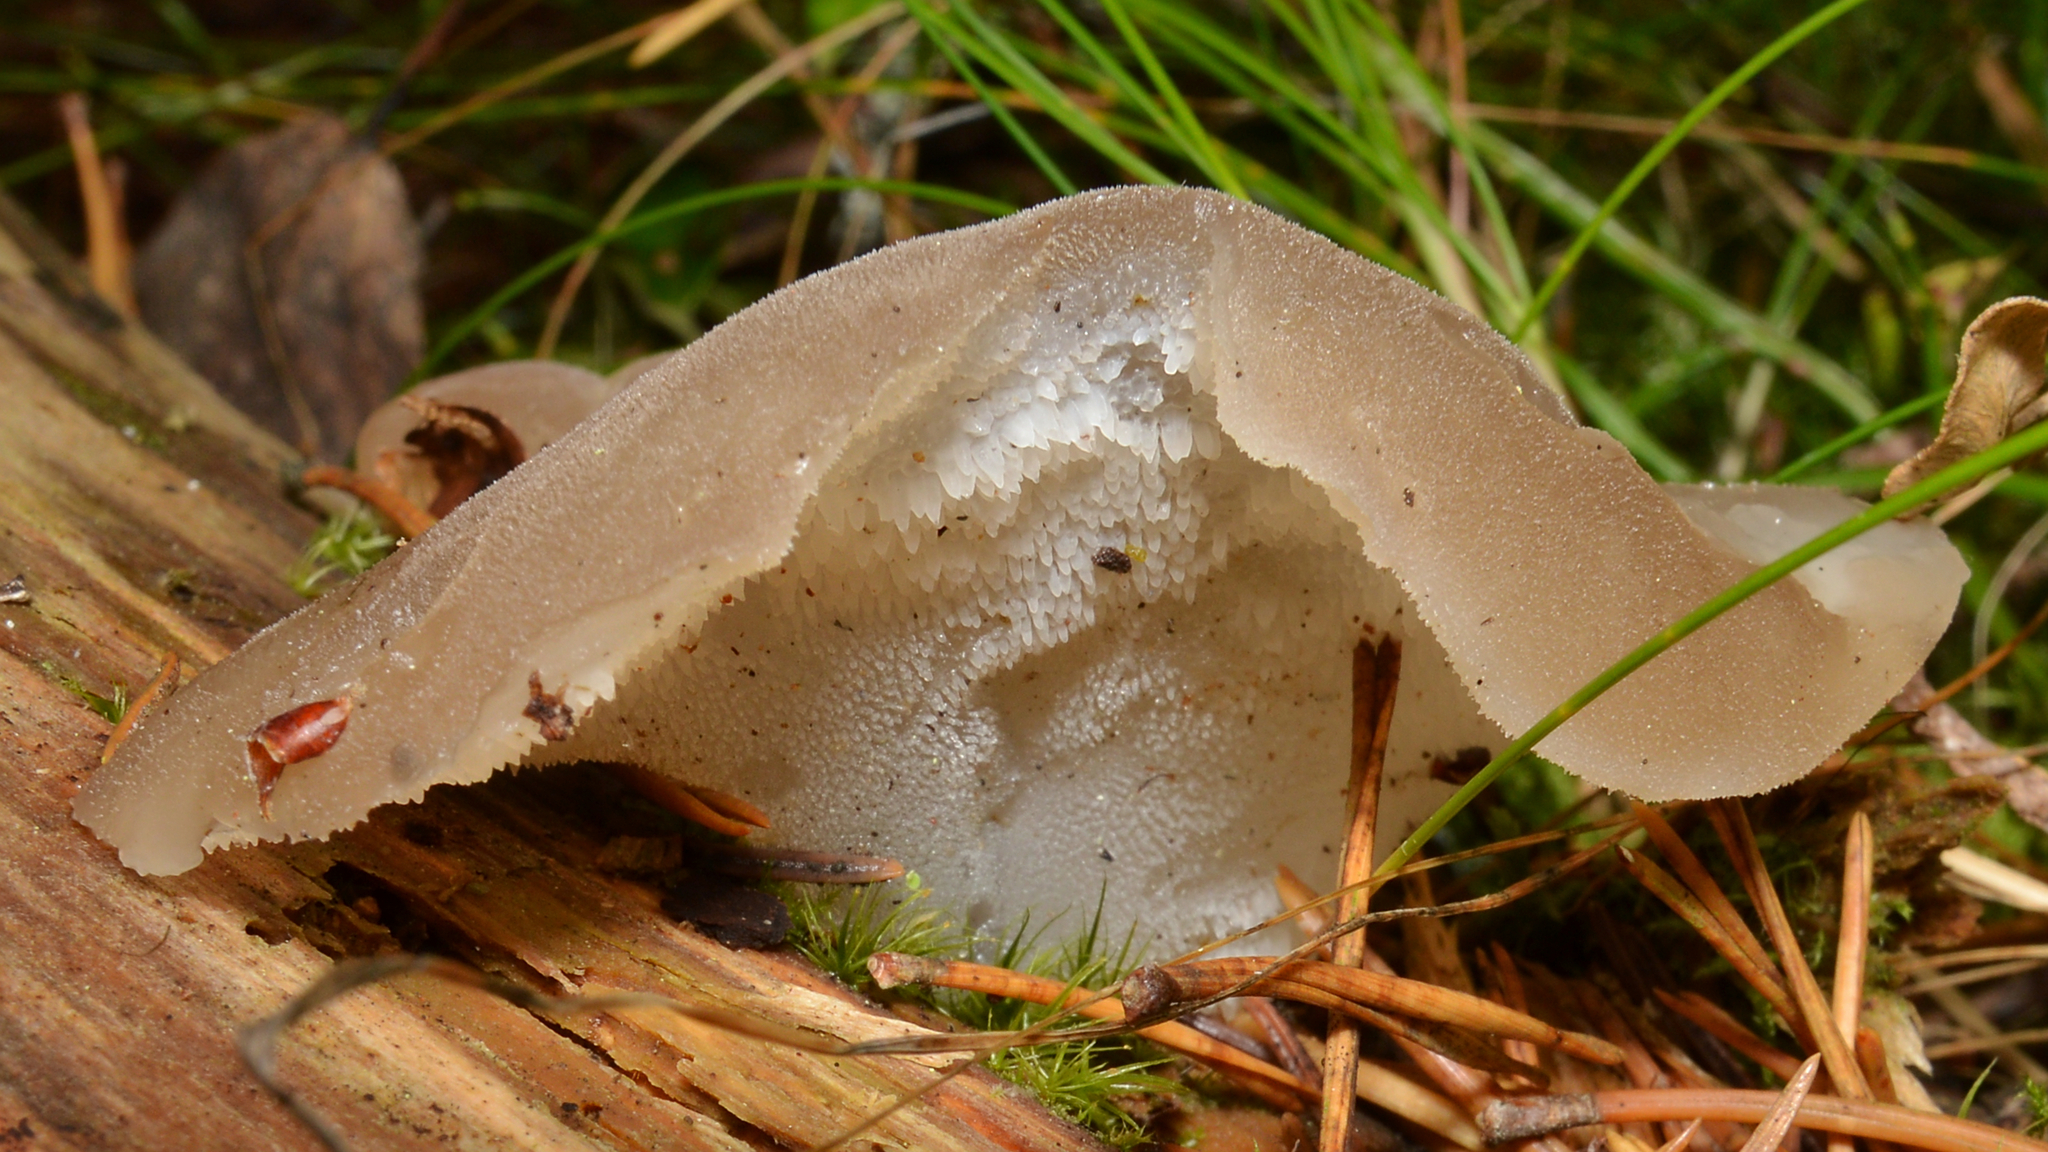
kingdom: Fungi
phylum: Basidiomycota
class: Agaricomycetes
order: Auriculariales
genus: Pseudohydnum
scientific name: Pseudohydnum gelatinosum
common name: Jelly tongue
